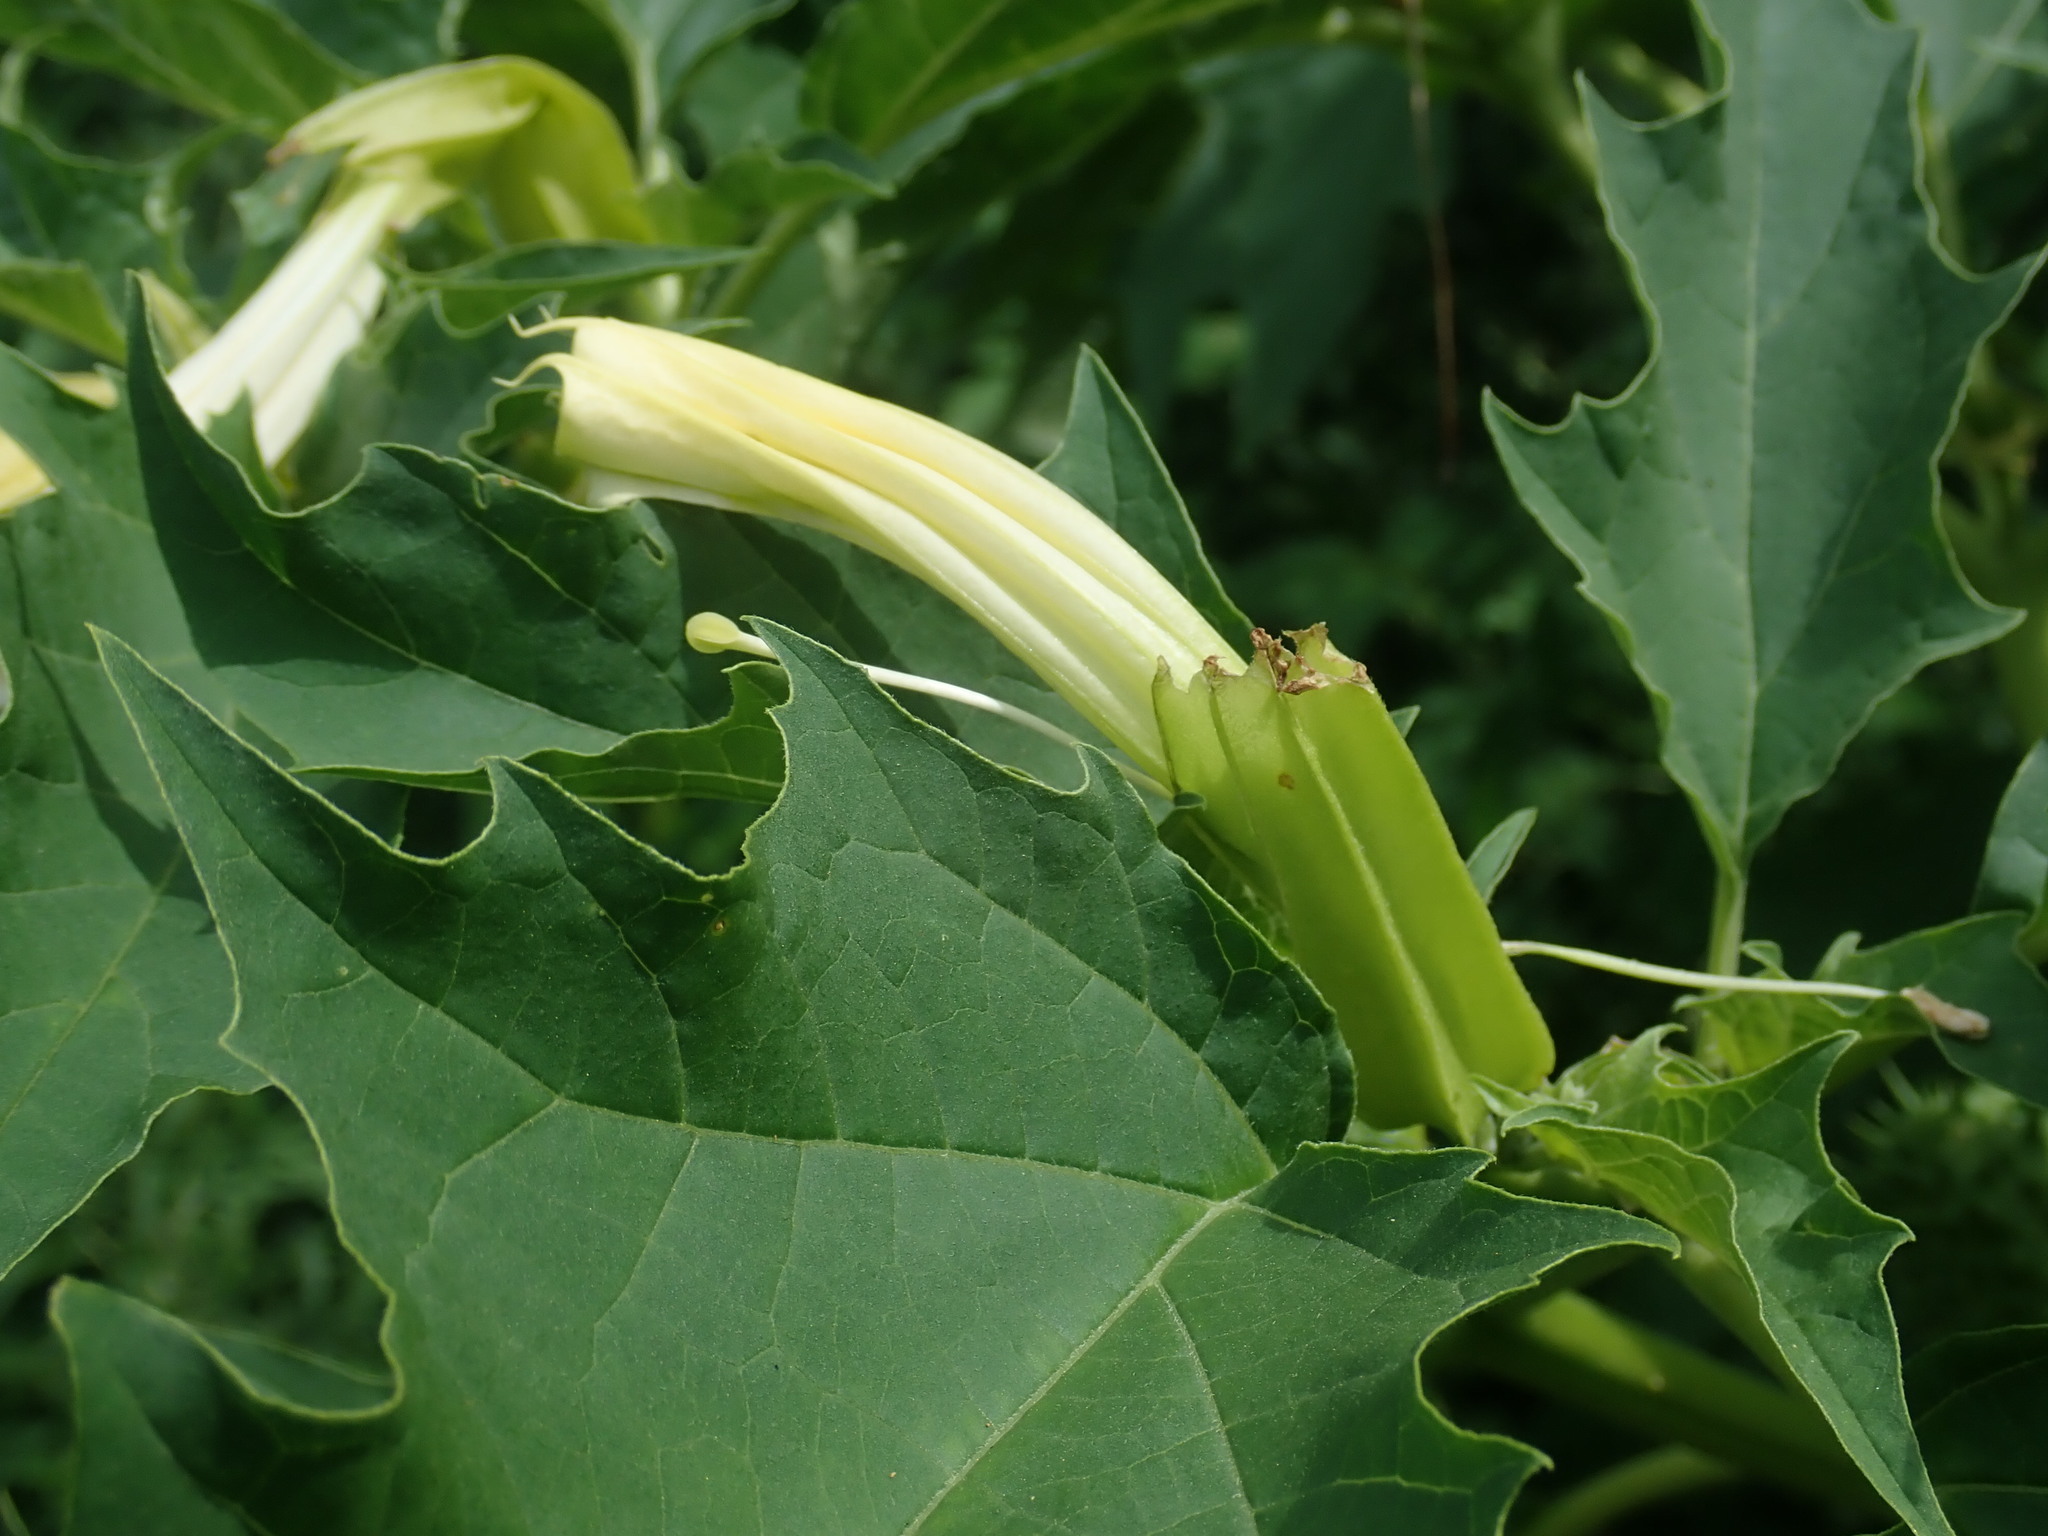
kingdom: Plantae
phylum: Tracheophyta
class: Magnoliopsida
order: Solanales
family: Solanaceae
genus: Datura
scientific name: Datura stramonium
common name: Thorn-apple
